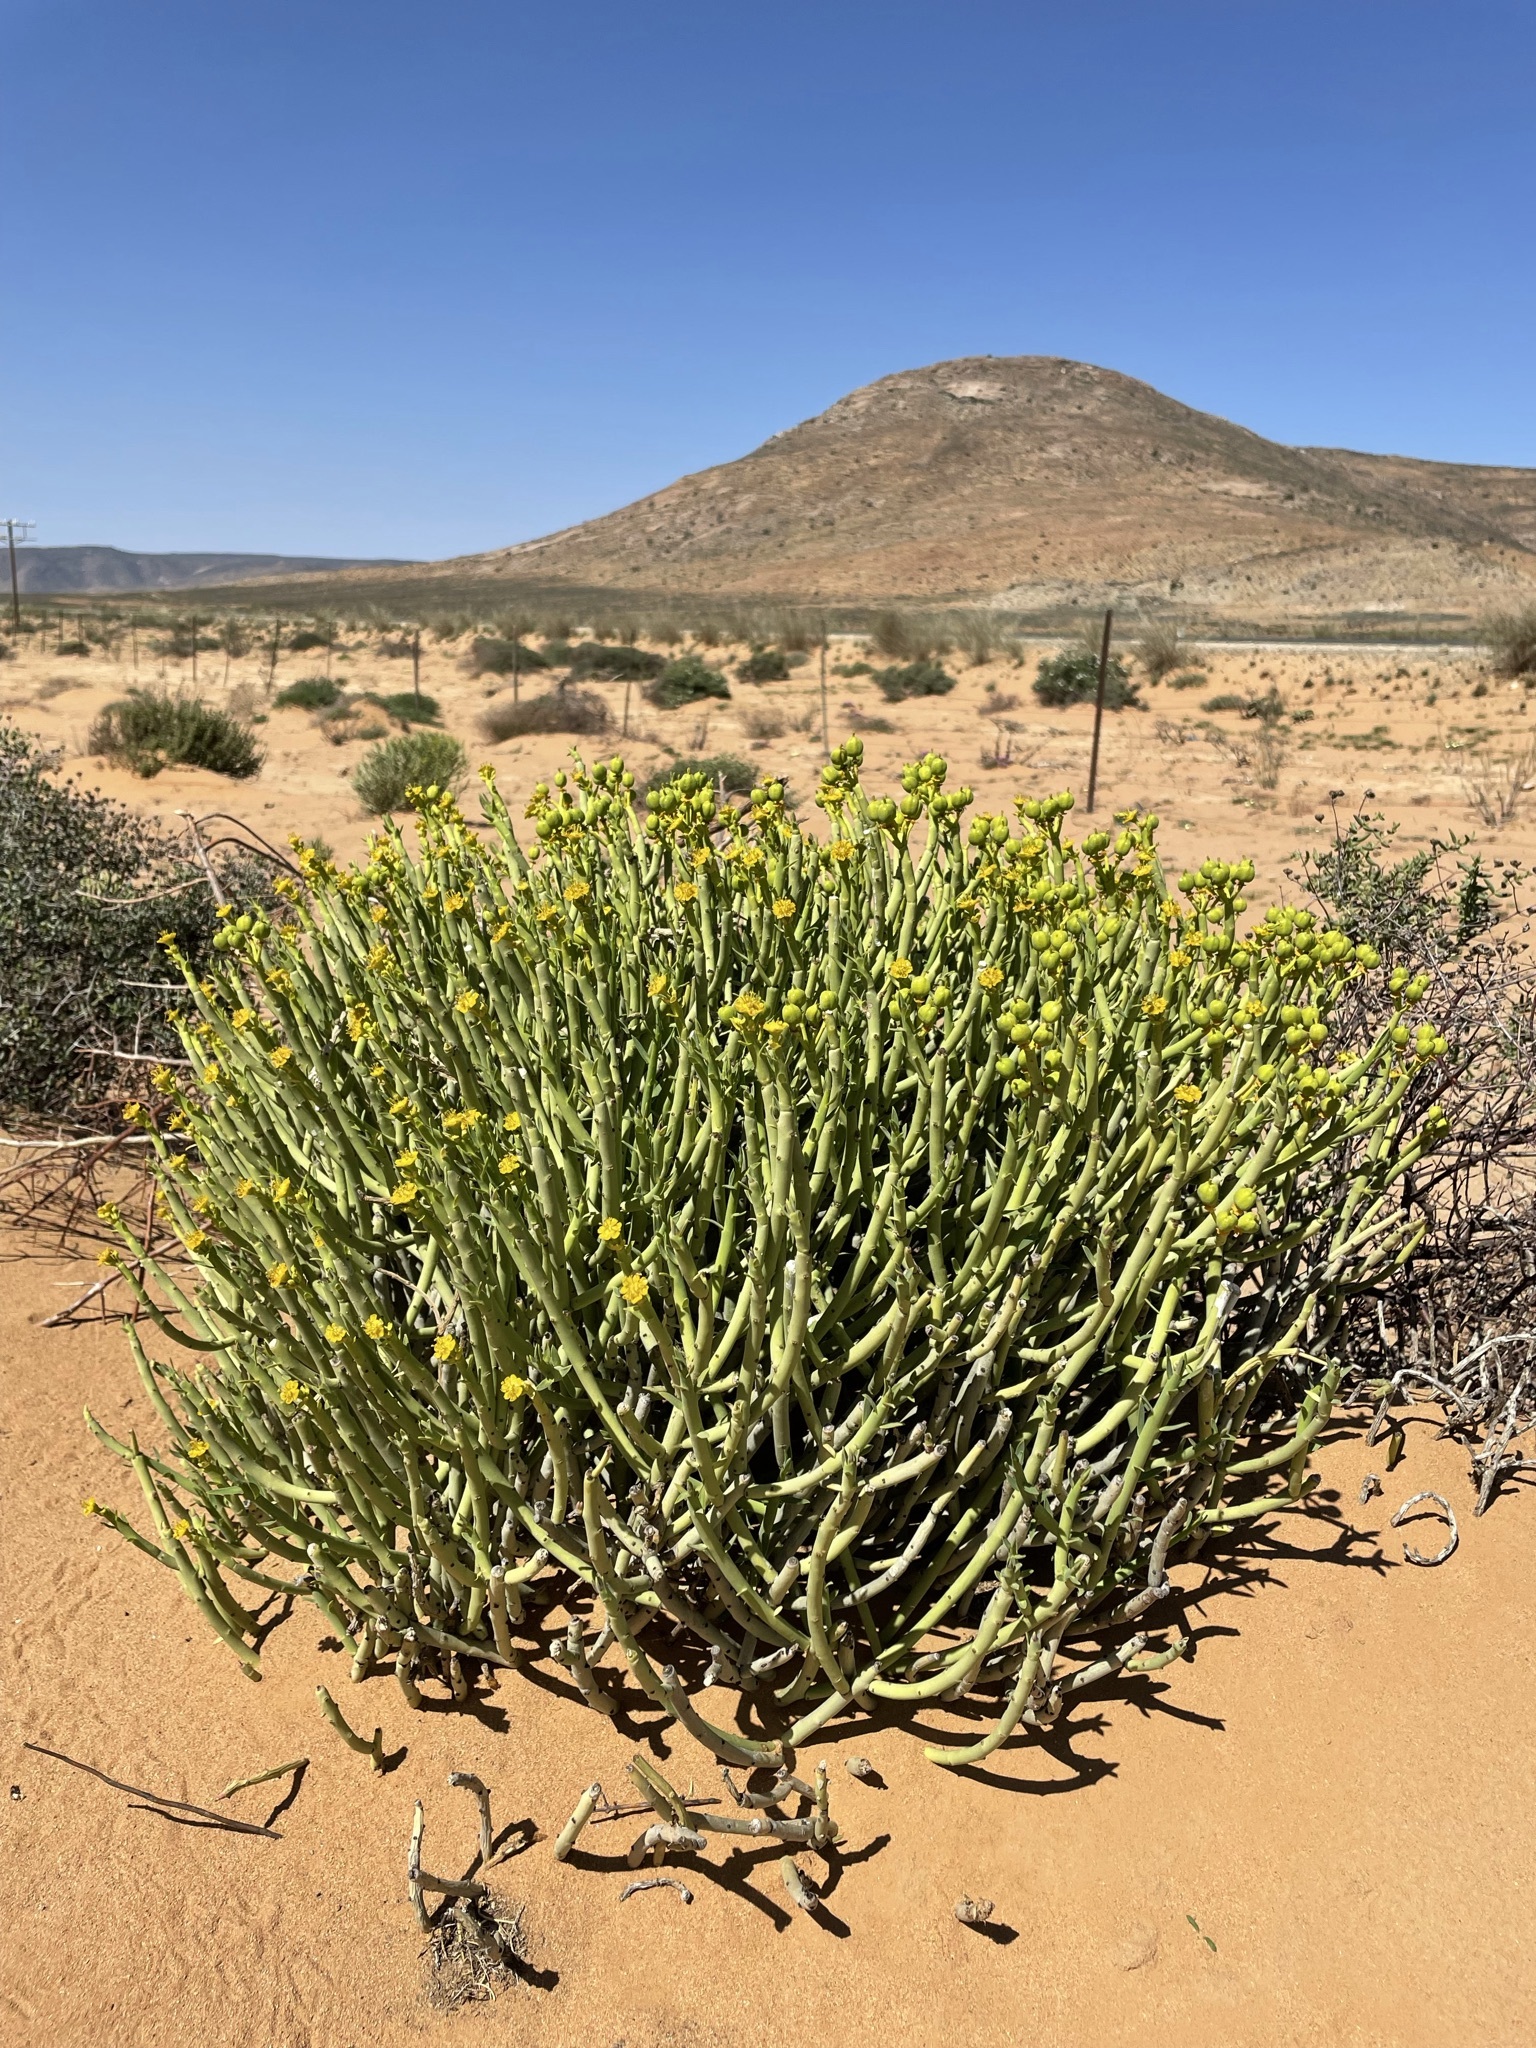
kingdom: Plantae
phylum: Tracheophyta
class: Magnoliopsida
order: Malpighiales
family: Euphorbiaceae
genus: Euphorbia
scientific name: Euphorbia mauritanica
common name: Jackal's-food
